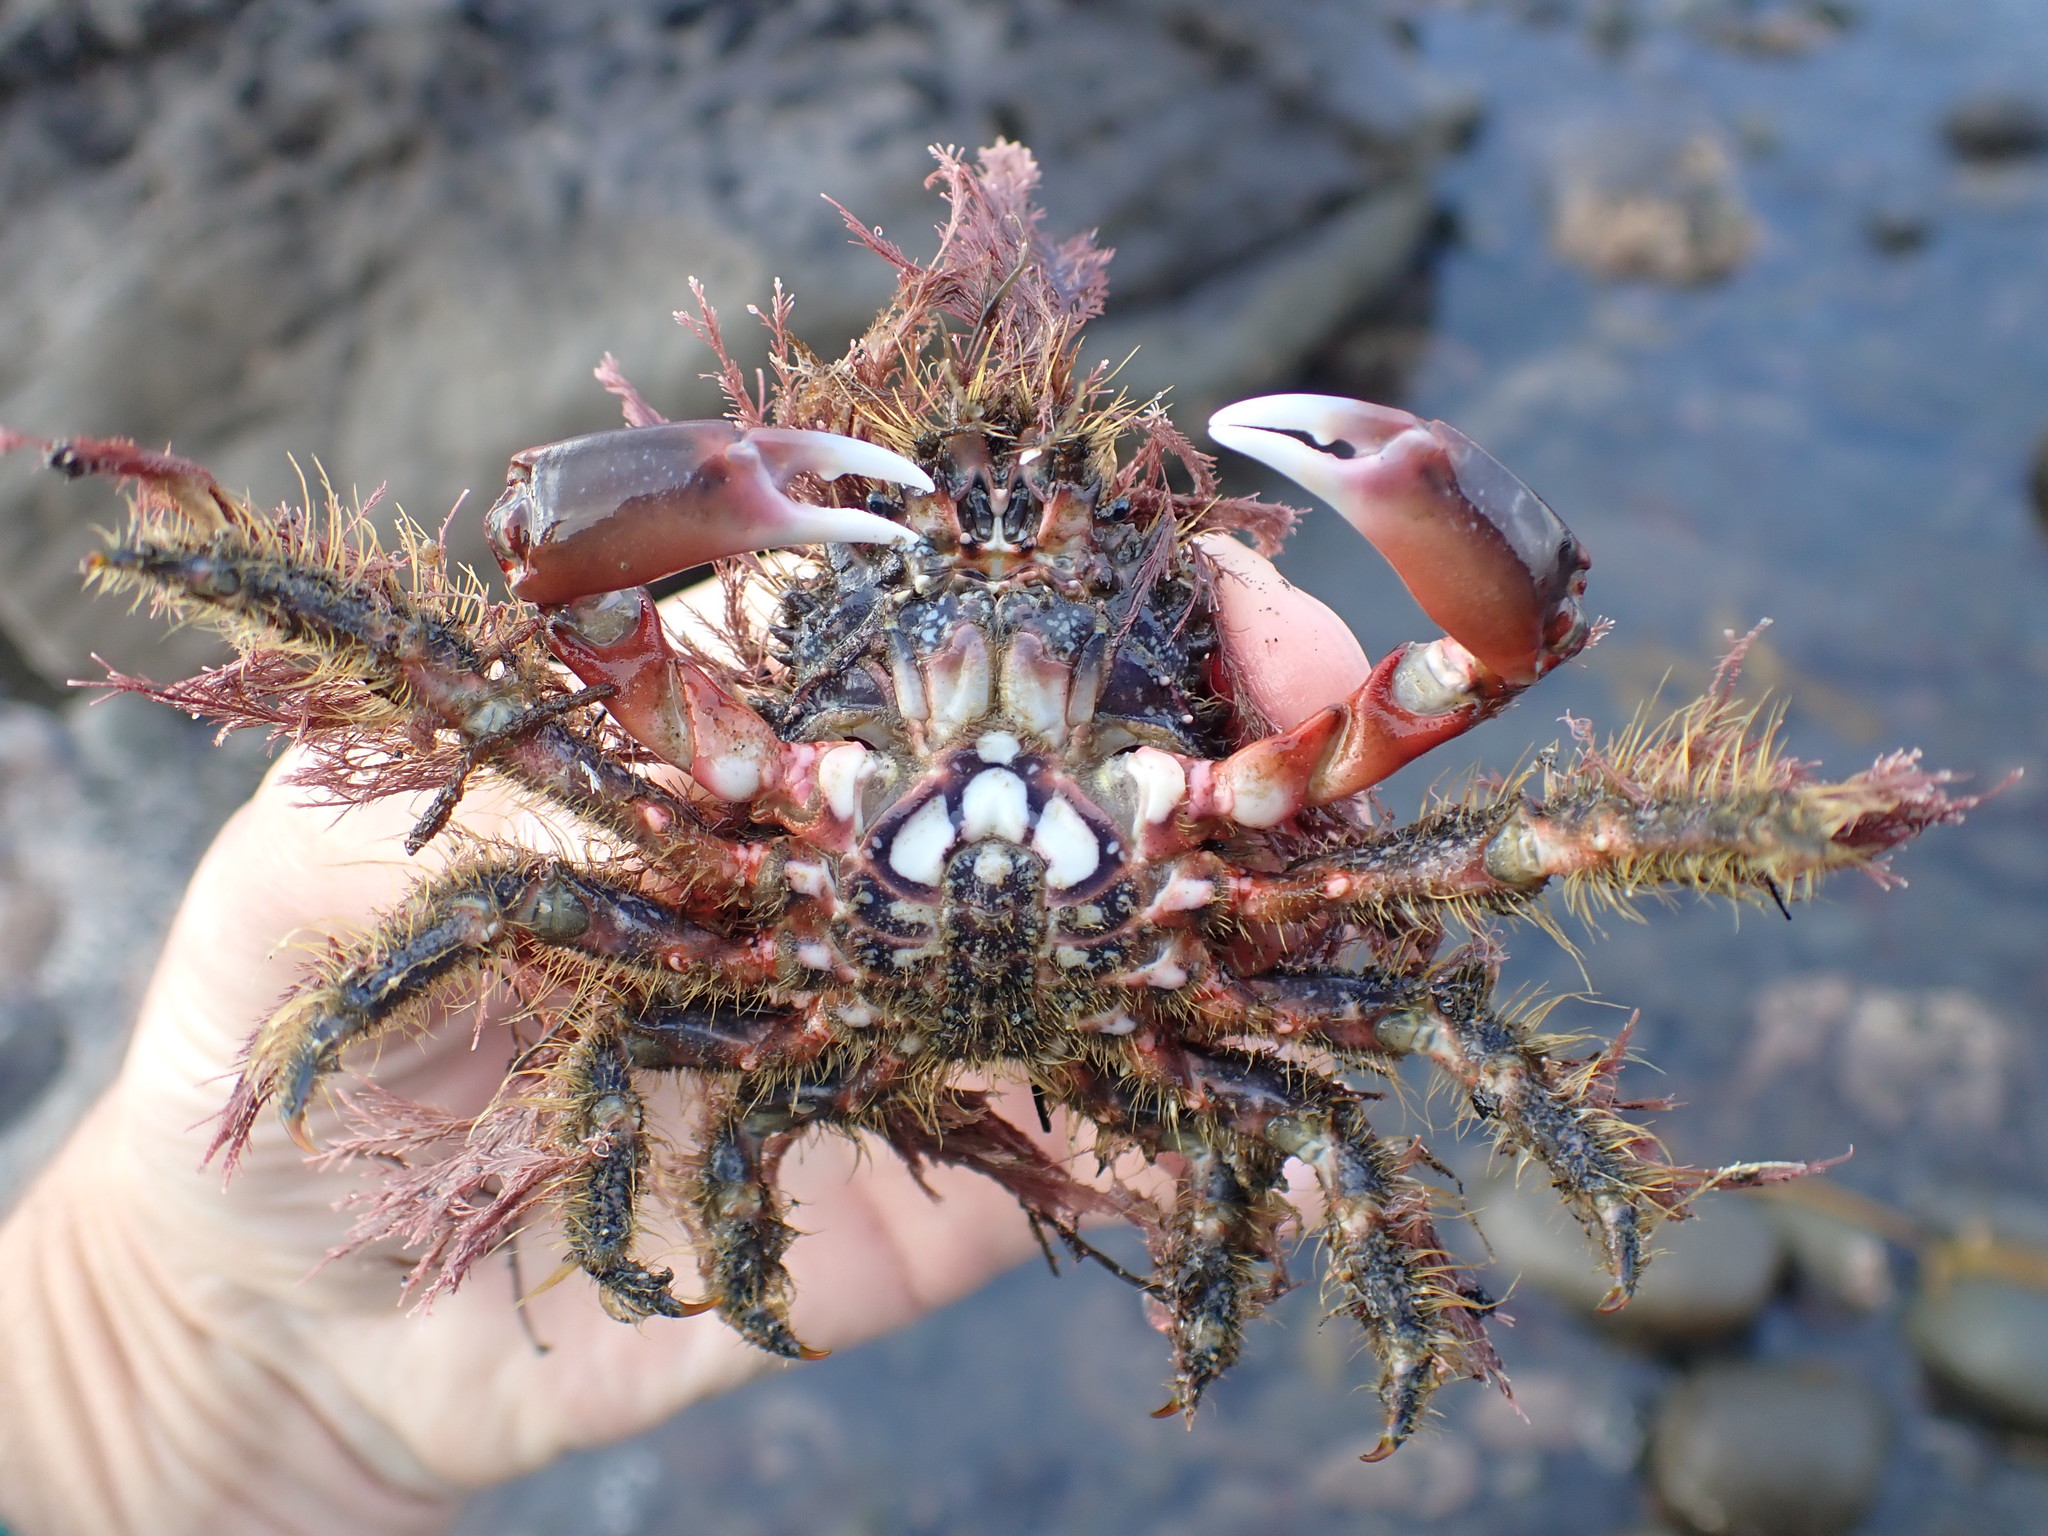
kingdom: Animalia
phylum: Arthropoda
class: Malacostraca
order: Decapoda
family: Majidae
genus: Notomithrax
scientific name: Notomithrax ursus
